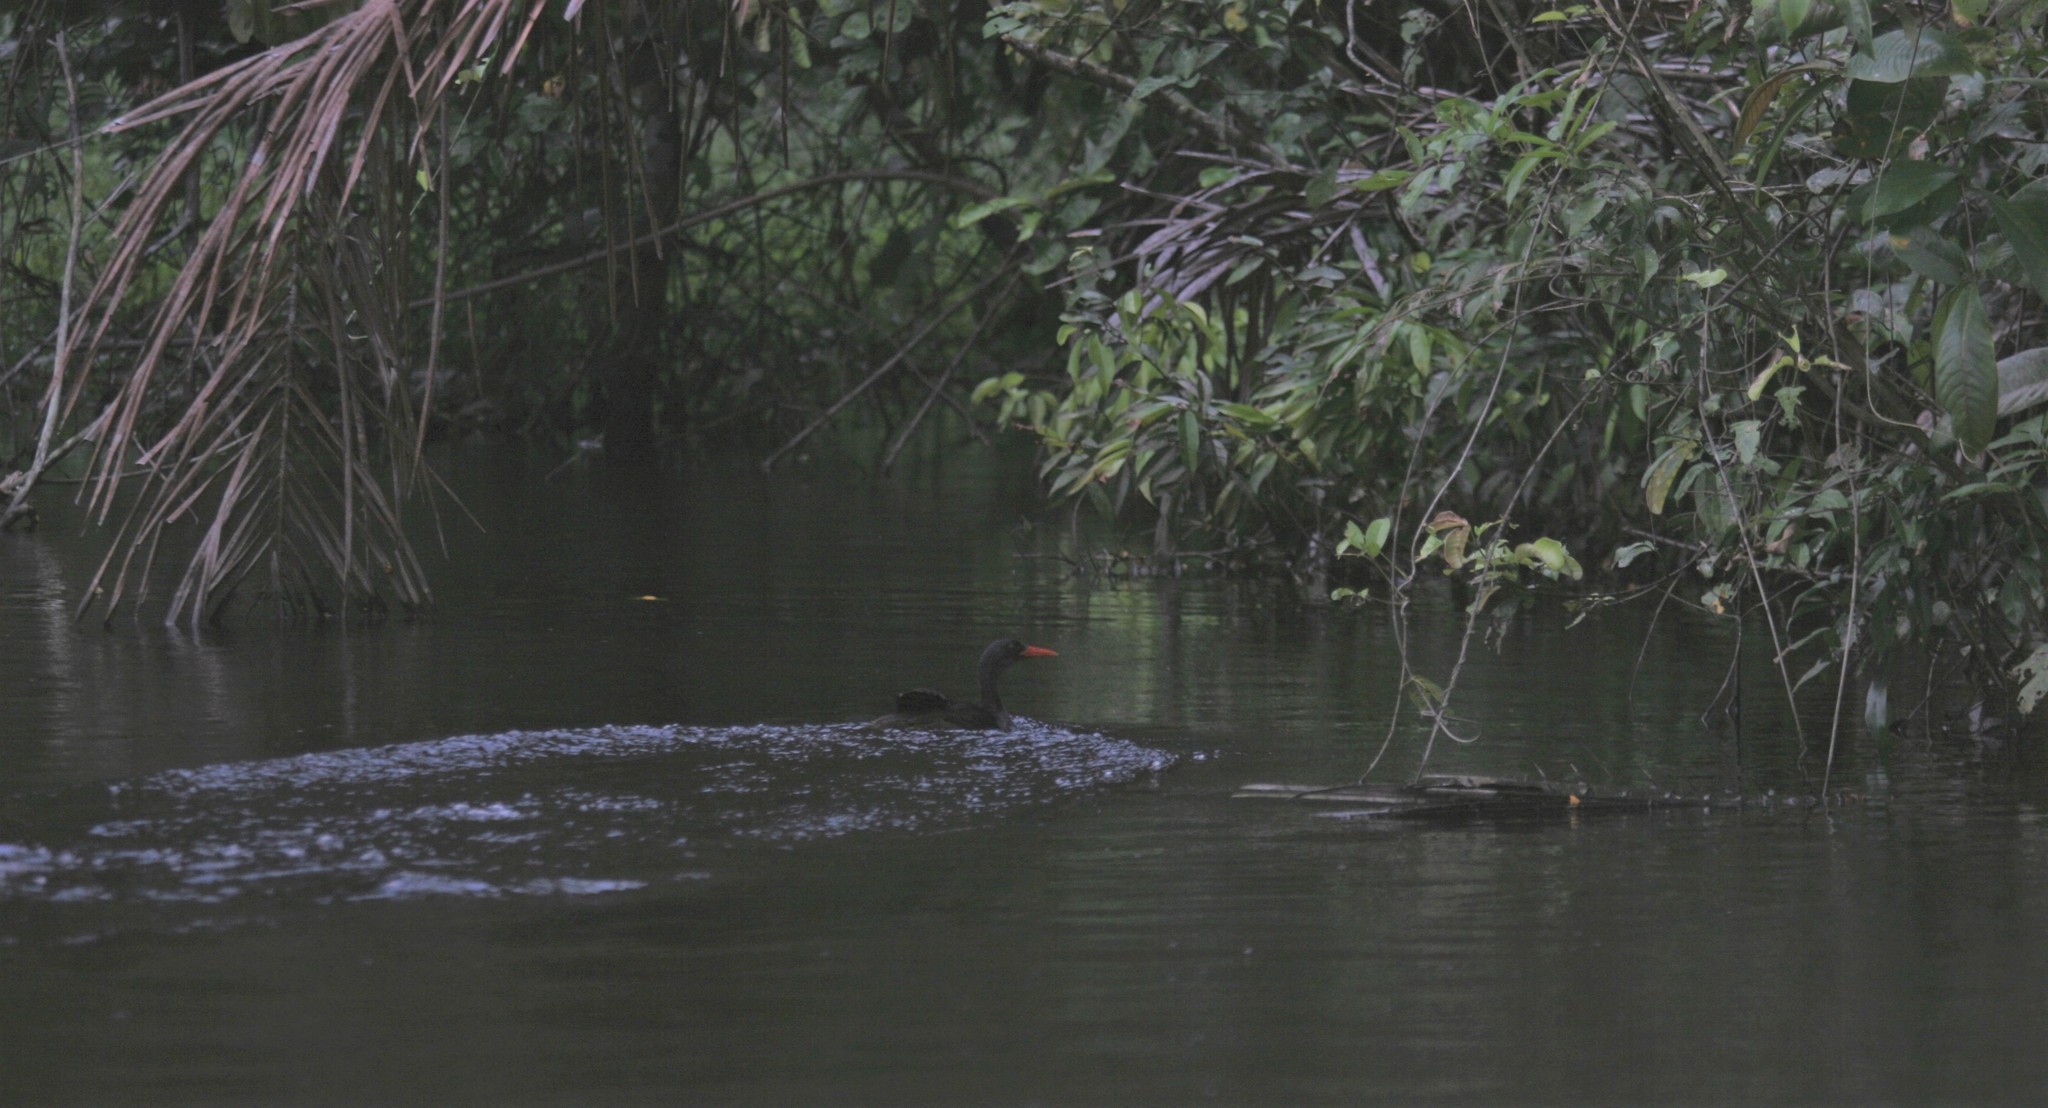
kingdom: Animalia
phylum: Chordata
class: Aves
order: Gruiformes
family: Heliornithidae
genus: Podica
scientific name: Podica senegalensis
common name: African finfoot
